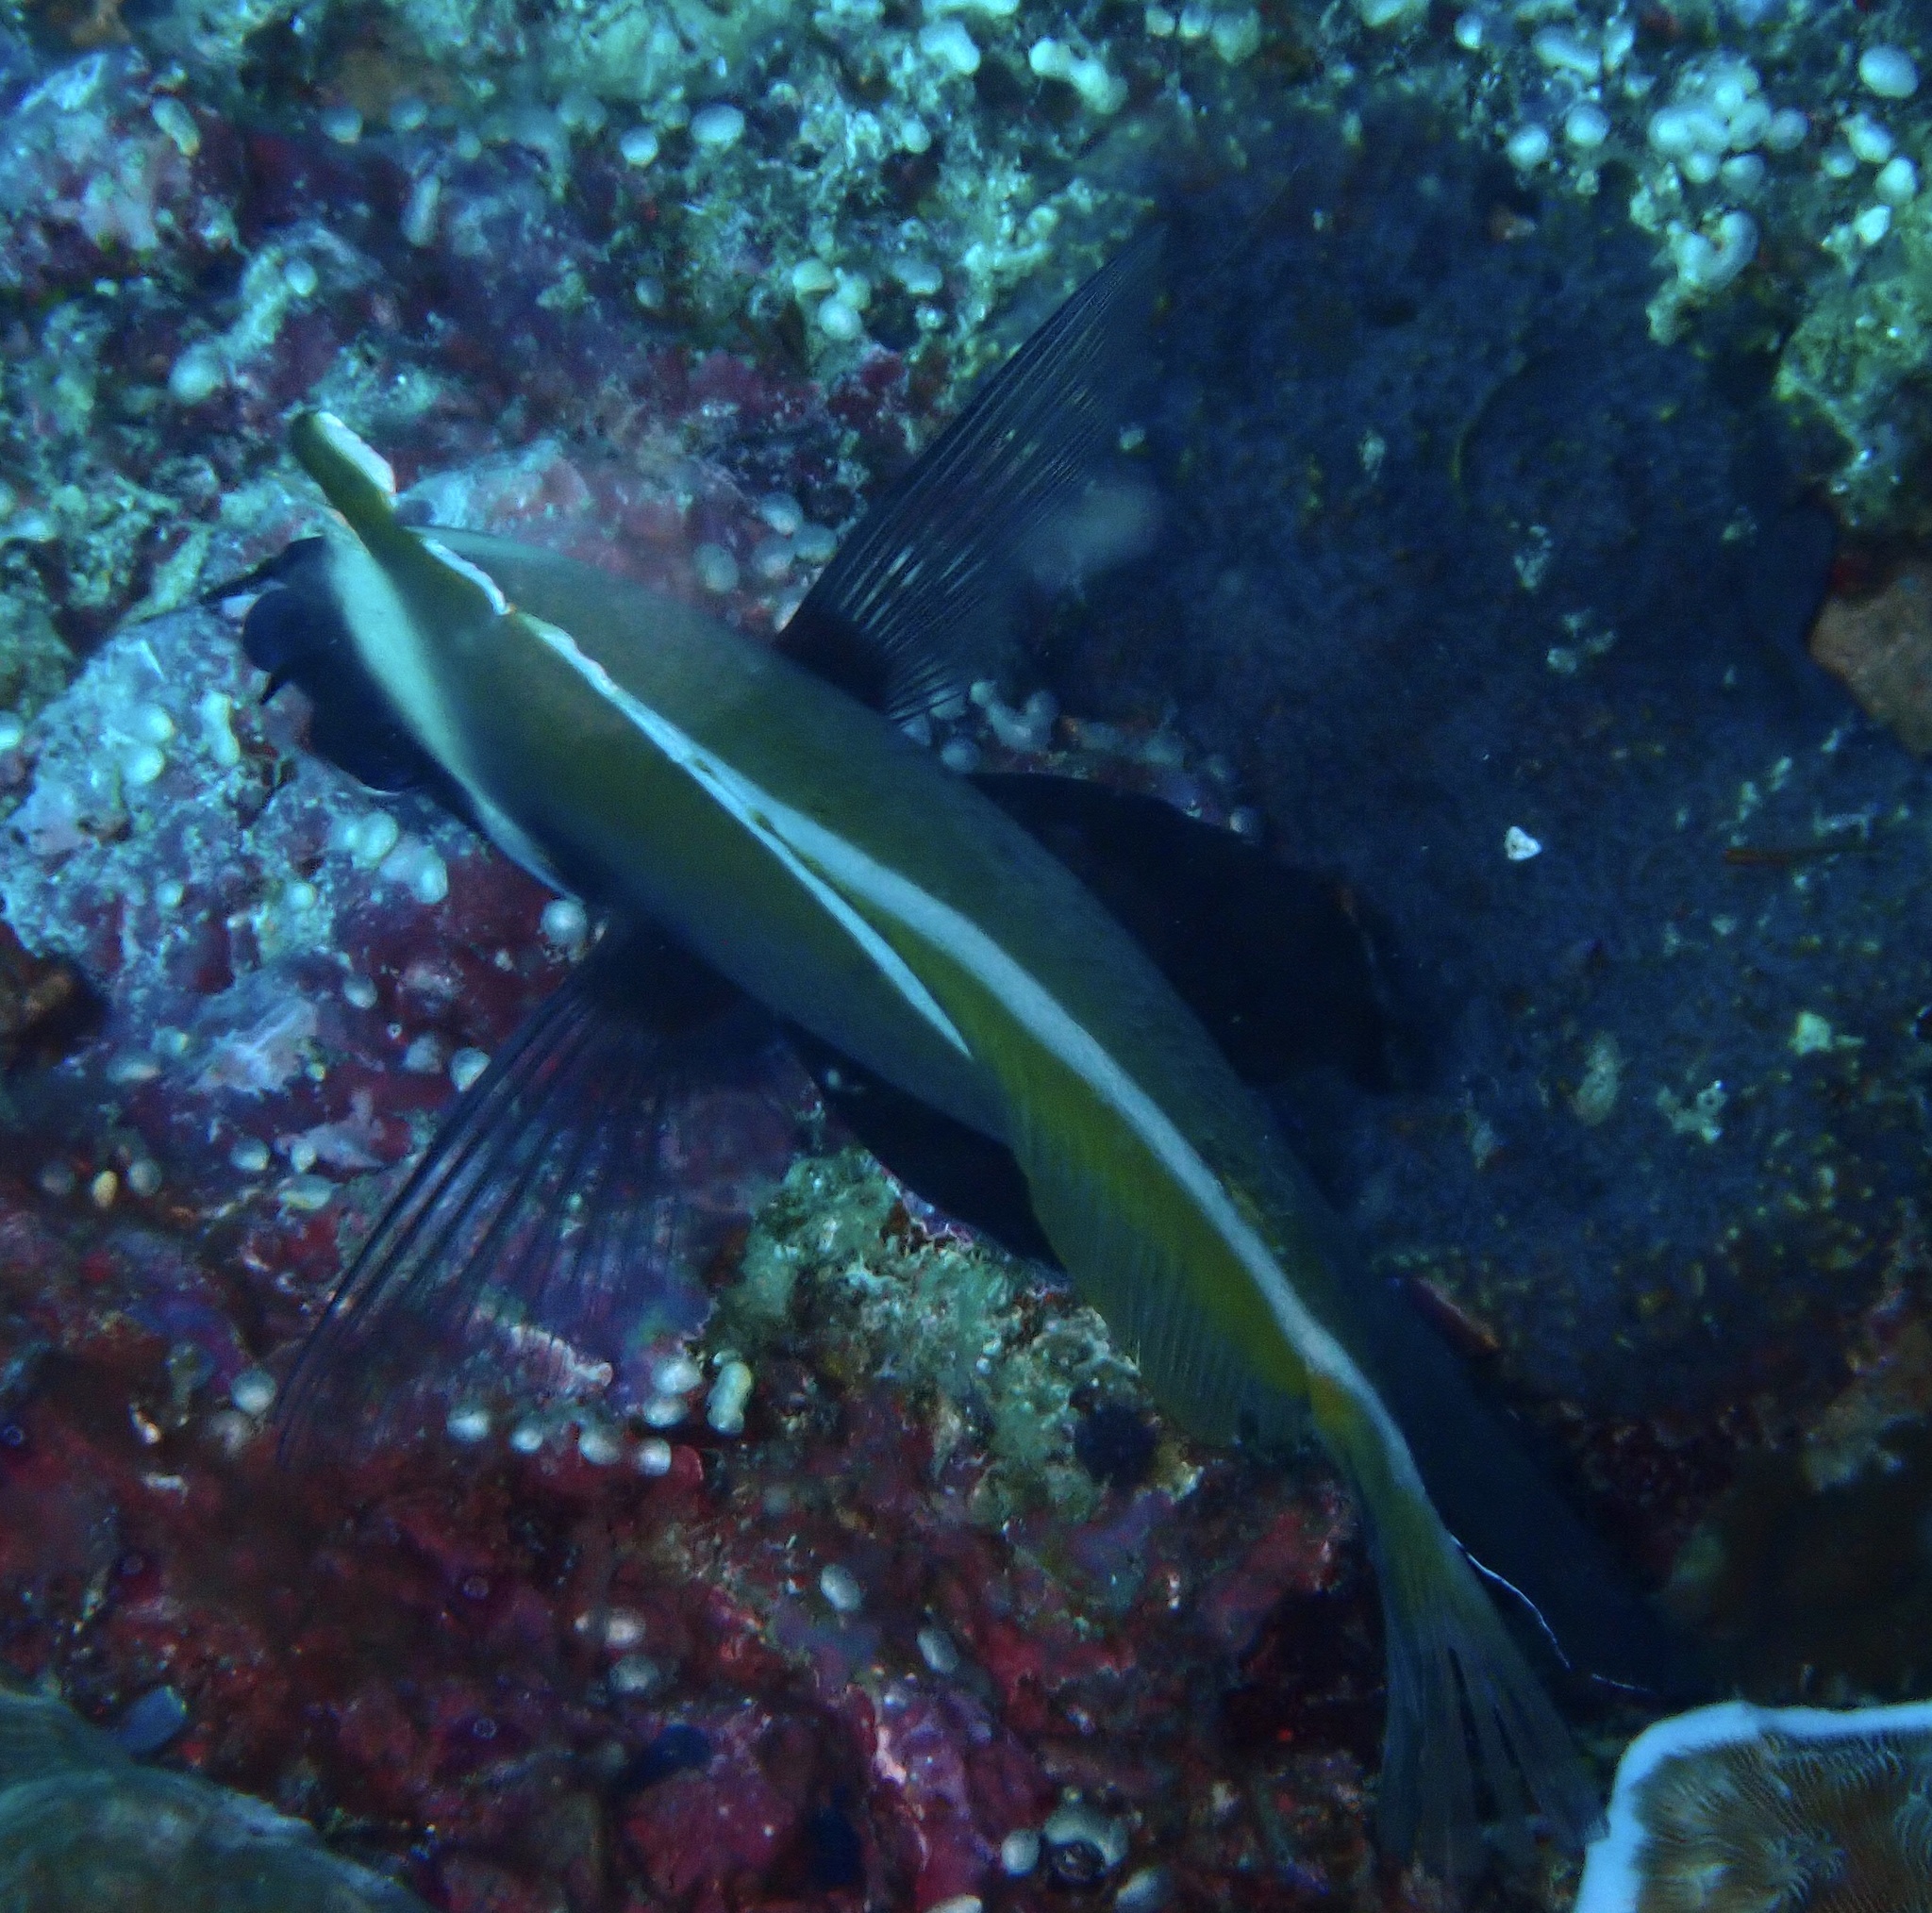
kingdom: Animalia
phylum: Chordata
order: Perciformes
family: Chaetodontidae
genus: Heniochus
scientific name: Heniochus varius
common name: Horned bannerfish
